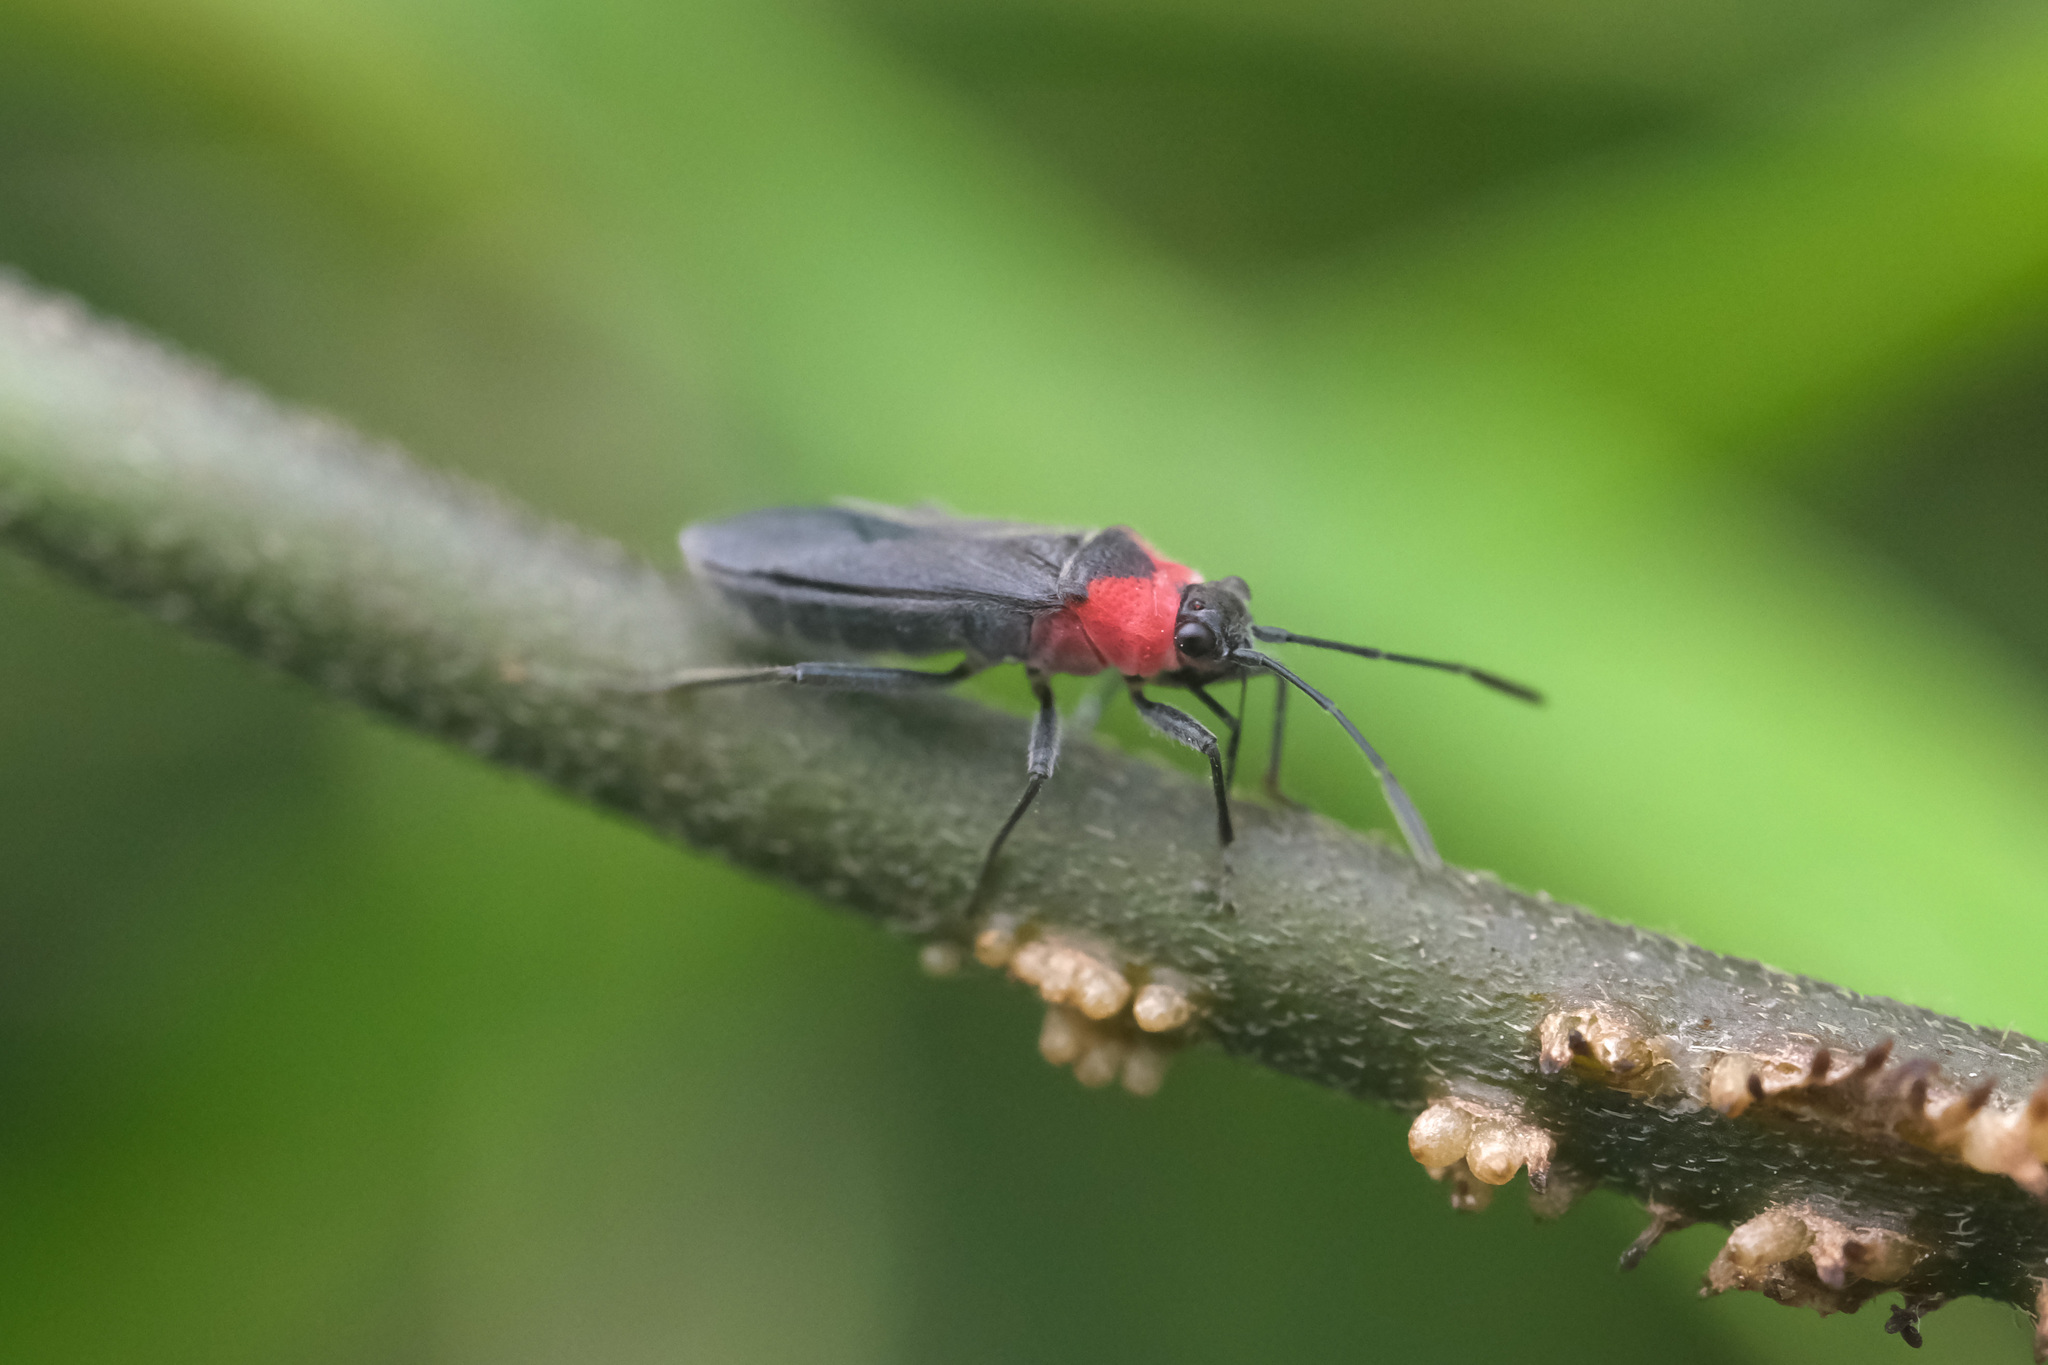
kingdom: Animalia
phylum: Arthropoda
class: Insecta
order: Hemiptera
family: Lygaeidae
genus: Aethalotus
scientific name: Aethalotus nigriventris
